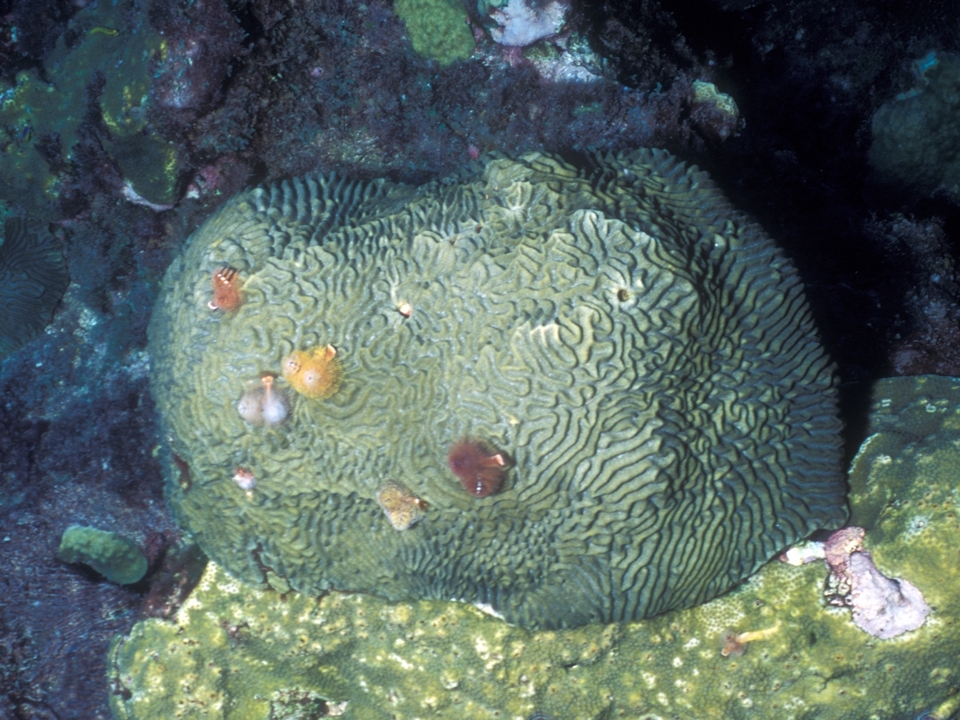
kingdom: Animalia
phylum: Cnidaria
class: Anthozoa
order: Scleractinia
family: Faviidae
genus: Pseudodiploria
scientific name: Pseudodiploria clivosa
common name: Knobby brain coral
